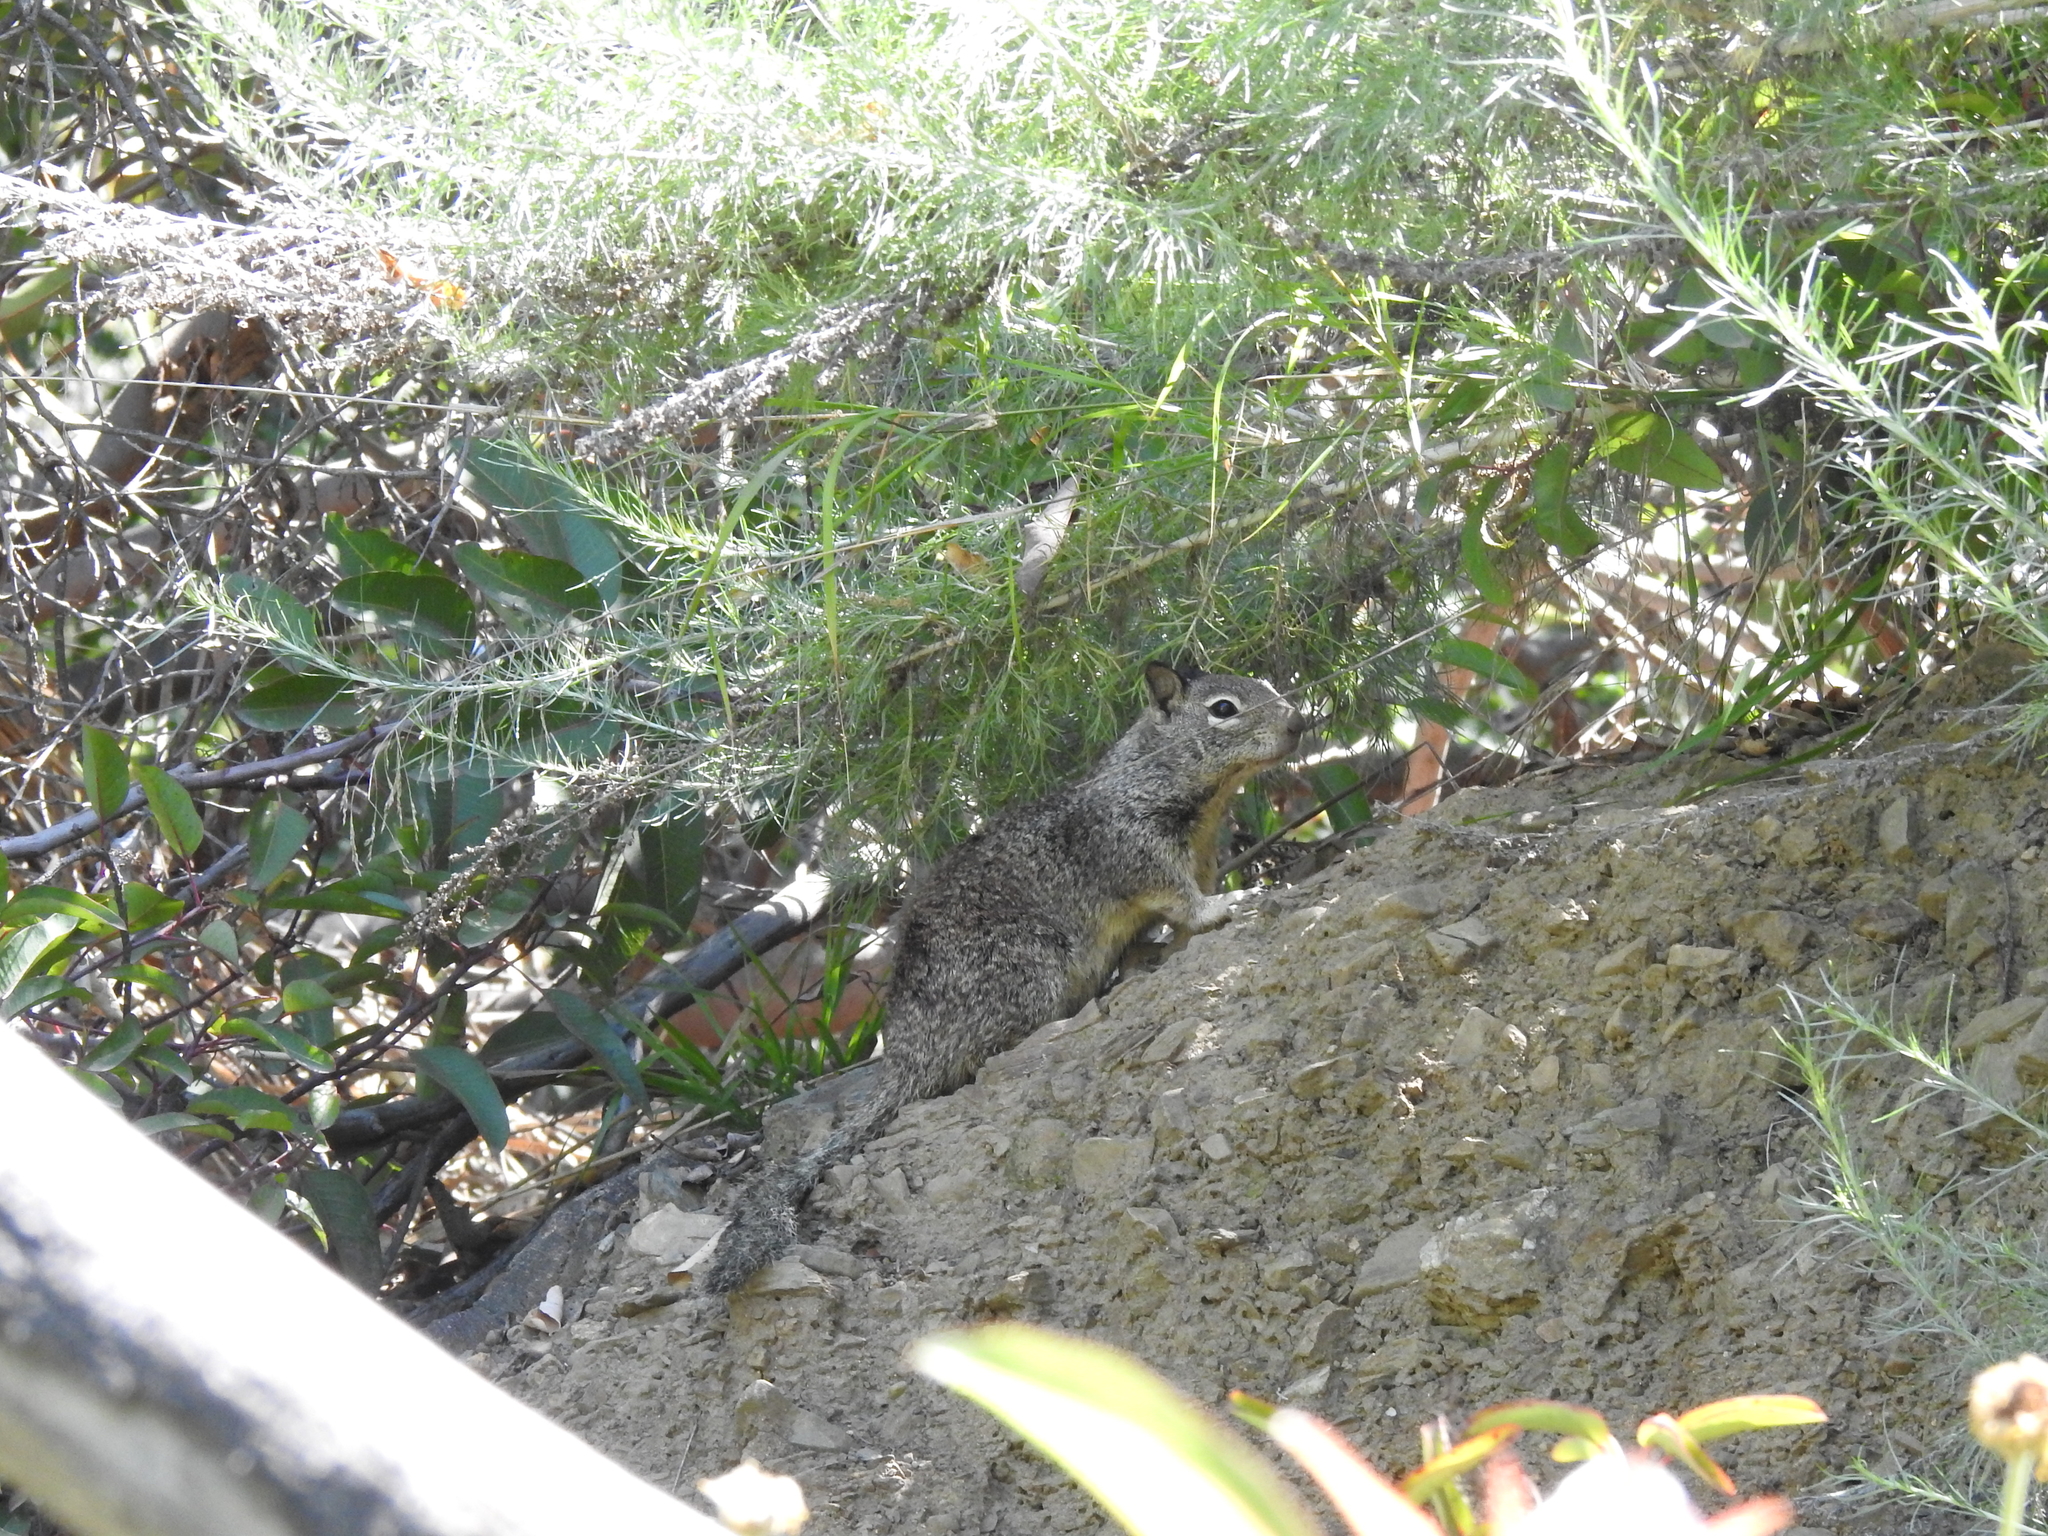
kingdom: Animalia
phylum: Chordata
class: Mammalia
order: Rodentia
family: Sciuridae
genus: Otospermophilus
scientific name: Otospermophilus beecheyi
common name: California ground squirrel
